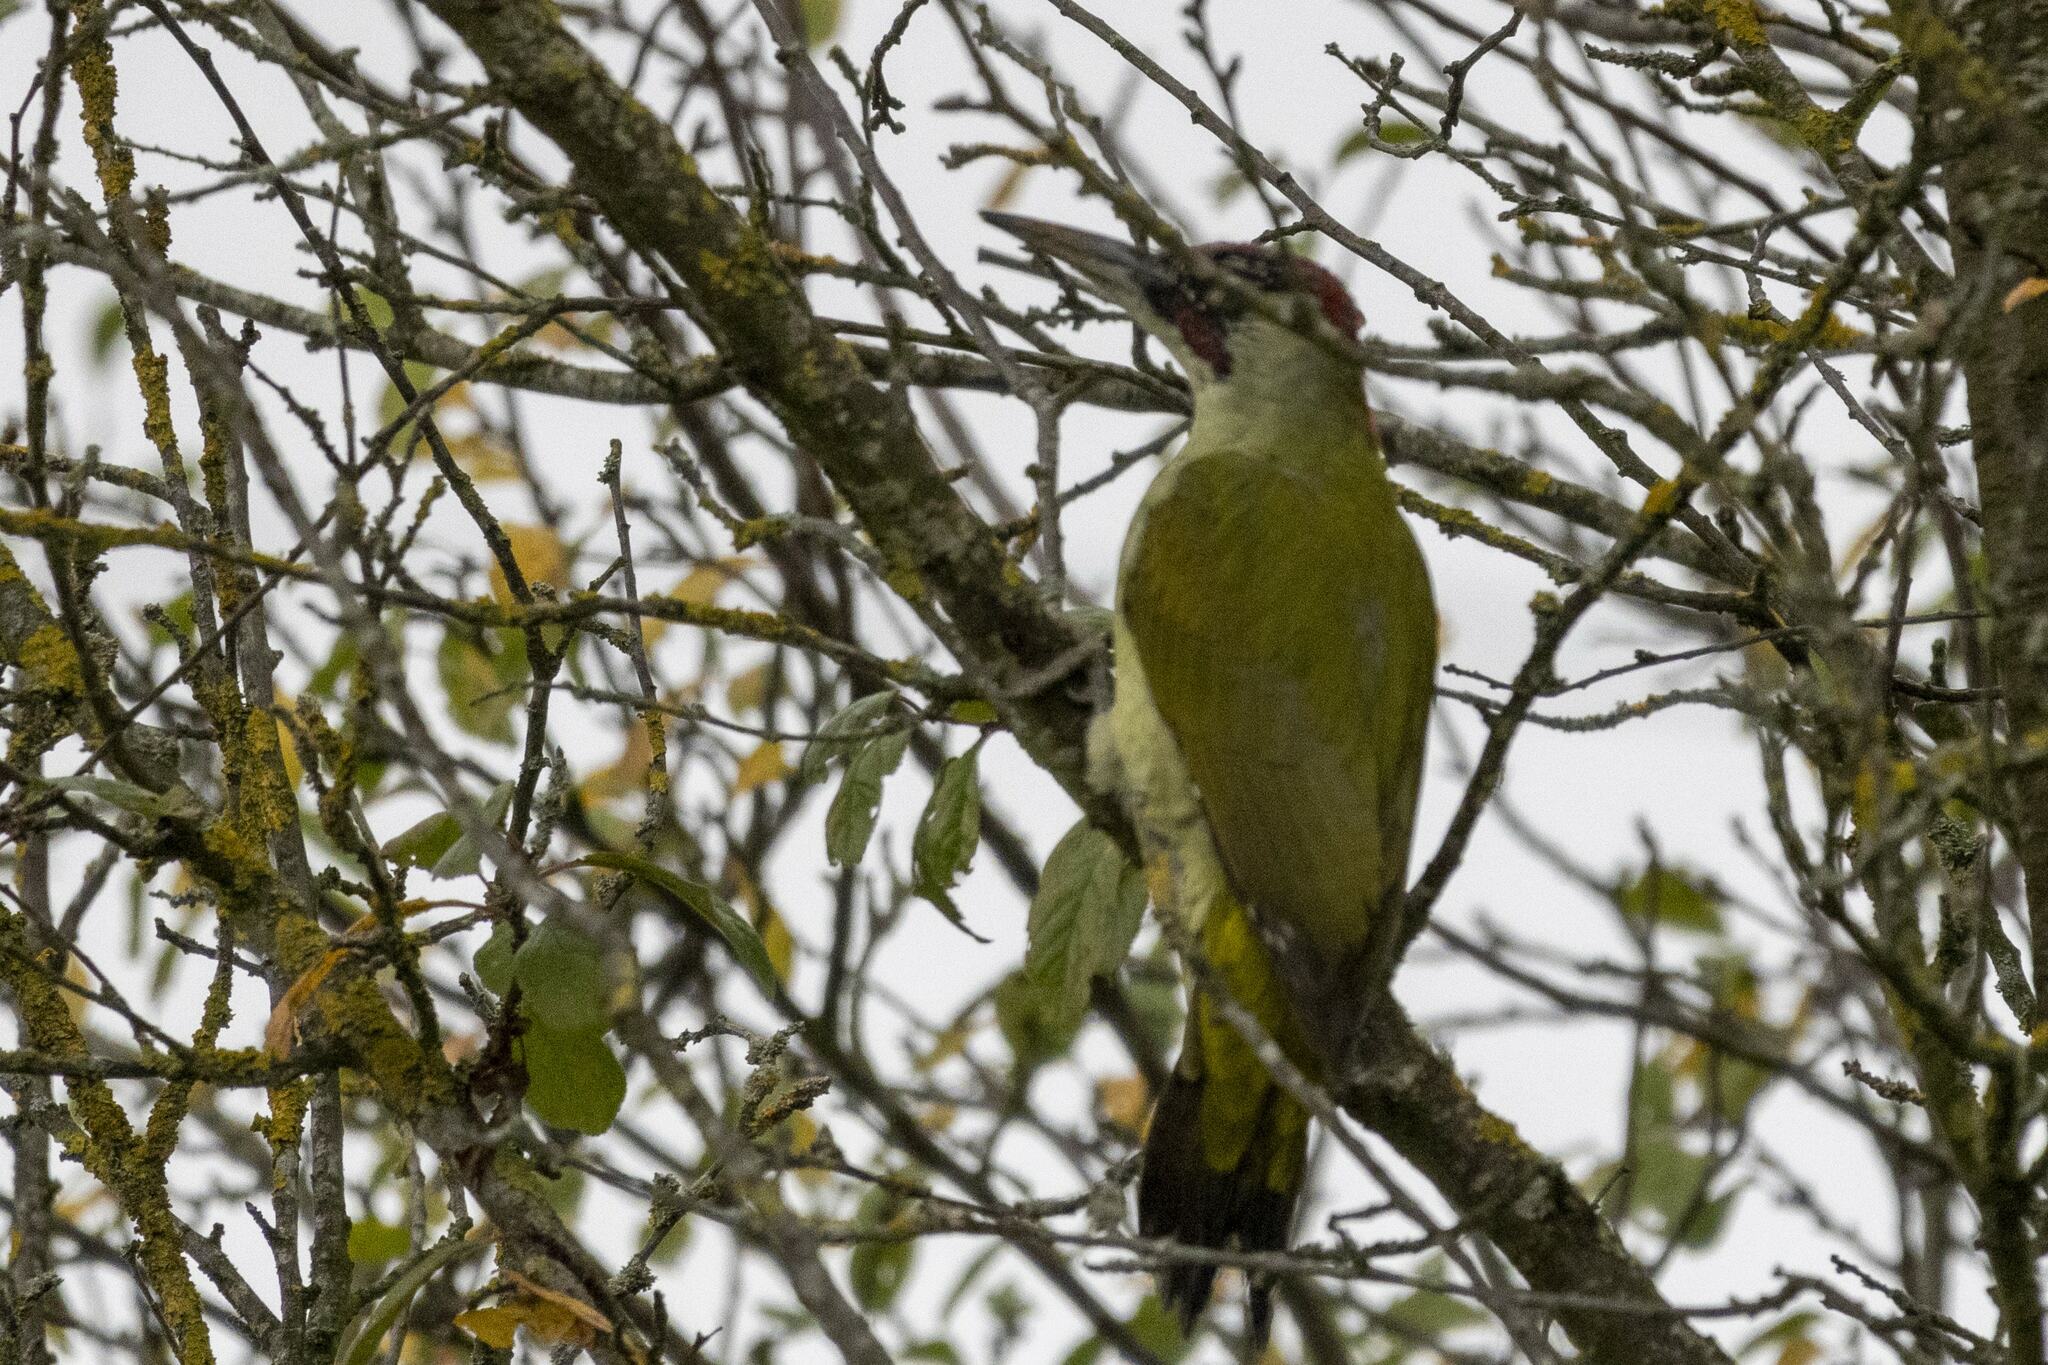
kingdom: Animalia
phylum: Chordata
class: Aves
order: Piciformes
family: Picidae
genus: Picus
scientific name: Picus viridis
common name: European green woodpecker
